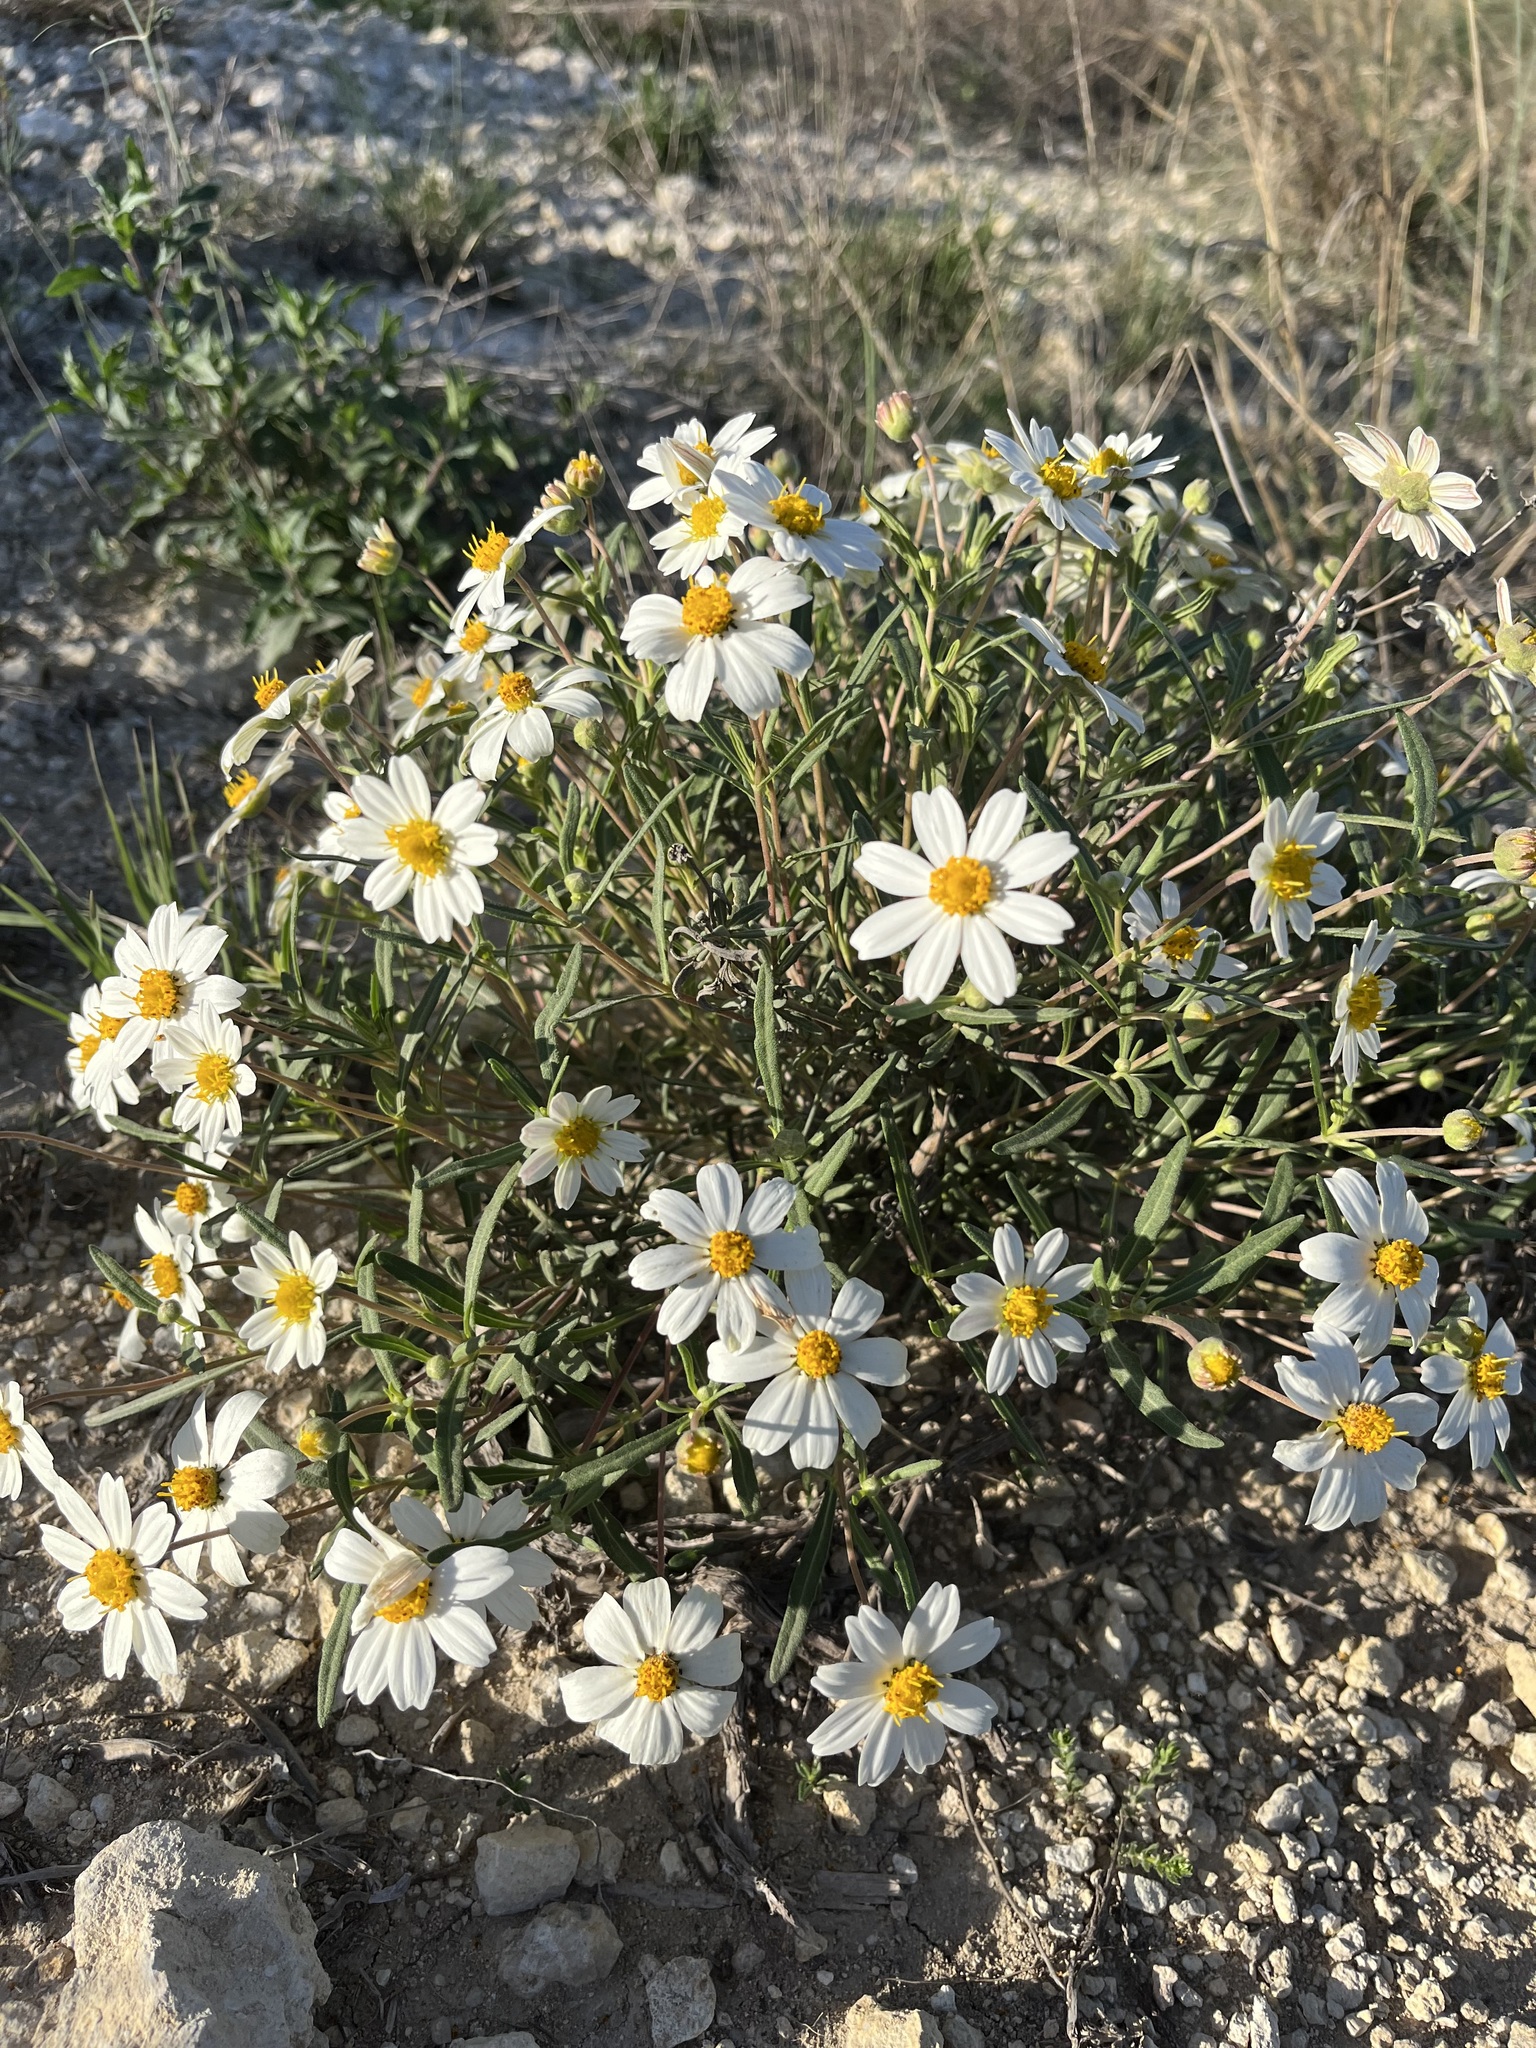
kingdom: Plantae
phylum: Tracheophyta
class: Magnoliopsida
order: Asterales
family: Asteraceae
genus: Melampodium
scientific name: Melampodium leucanthum
